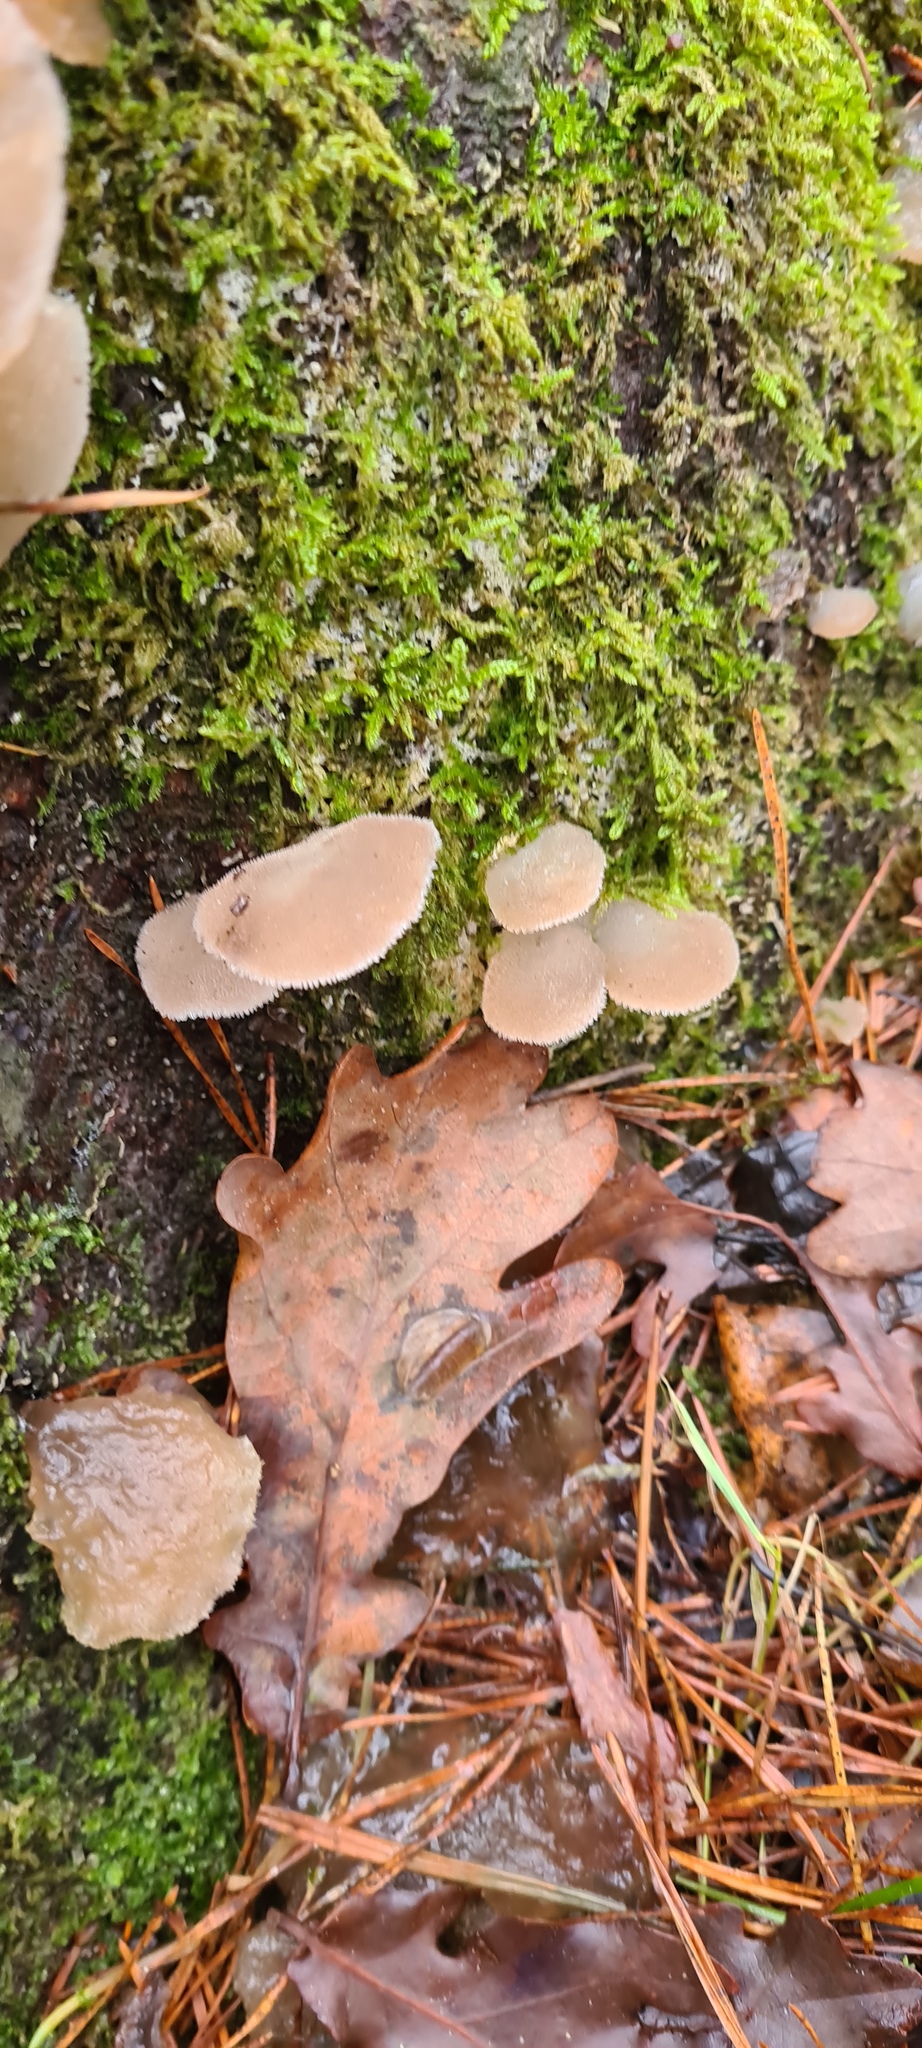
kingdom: Fungi
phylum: Basidiomycota
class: Agaricomycetes
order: Auriculariales
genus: Pseudohydnum
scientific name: Pseudohydnum gelatinosum
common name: Jelly tongue
